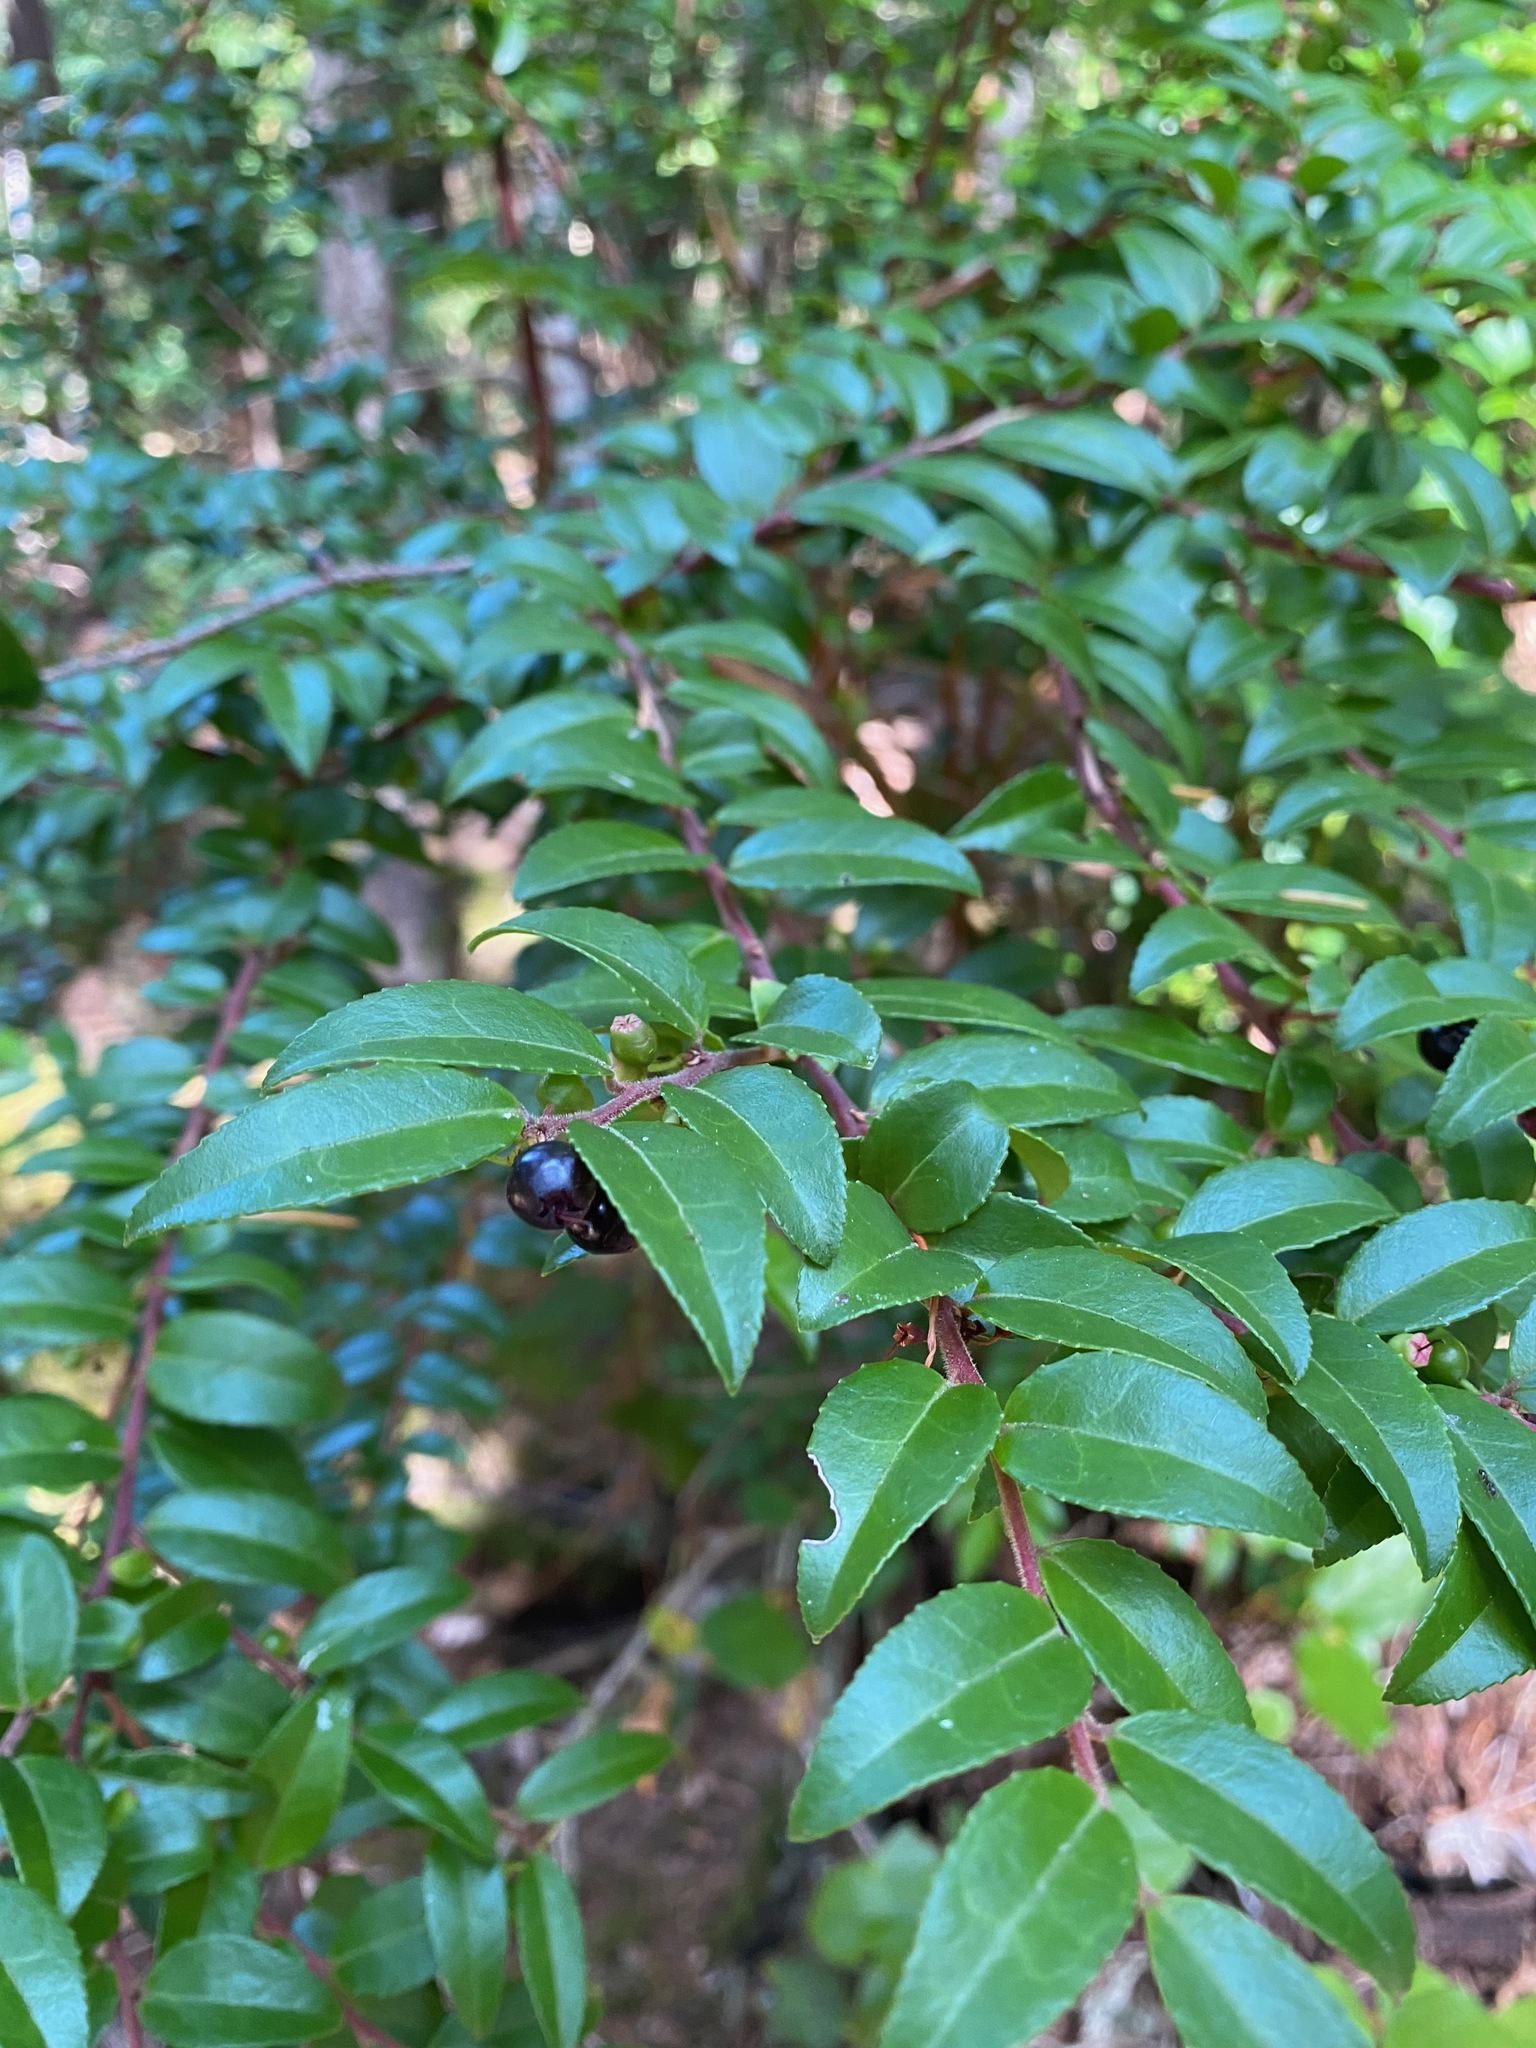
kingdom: Plantae
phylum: Tracheophyta
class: Magnoliopsida
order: Ericales
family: Ericaceae
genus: Vaccinium
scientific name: Vaccinium ovatum
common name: California-huckleberry
